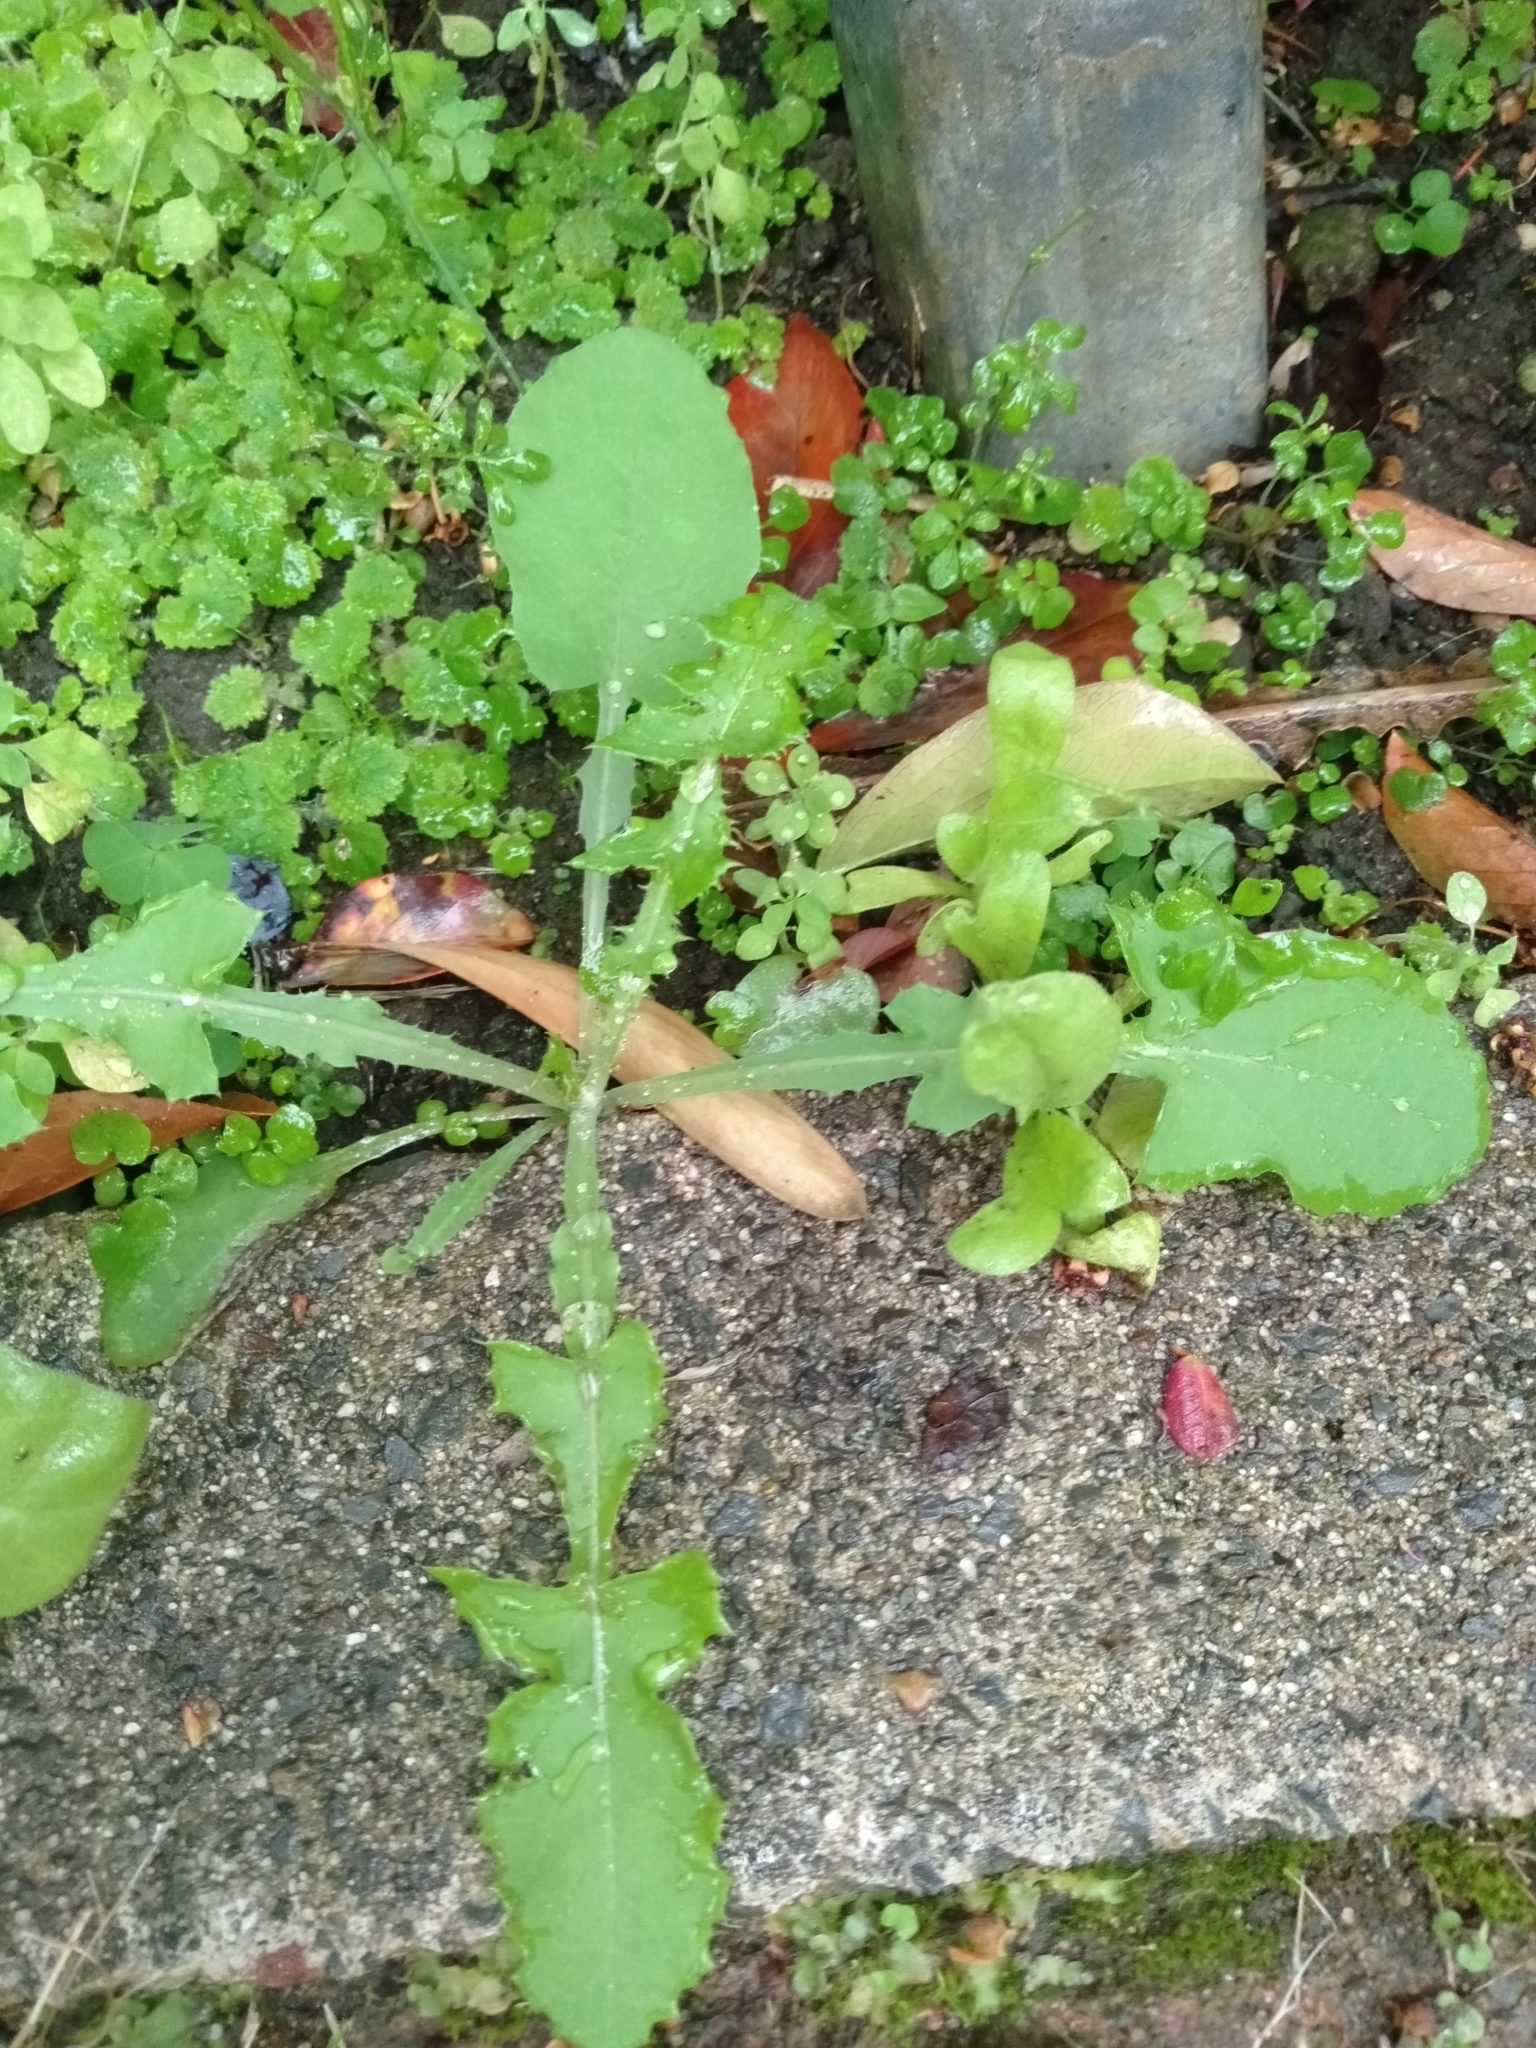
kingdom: Plantae
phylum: Tracheophyta
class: Magnoliopsida
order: Asterales
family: Asteraceae
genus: Sonchus
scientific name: Sonchus oleraceus
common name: Common sowthistle
